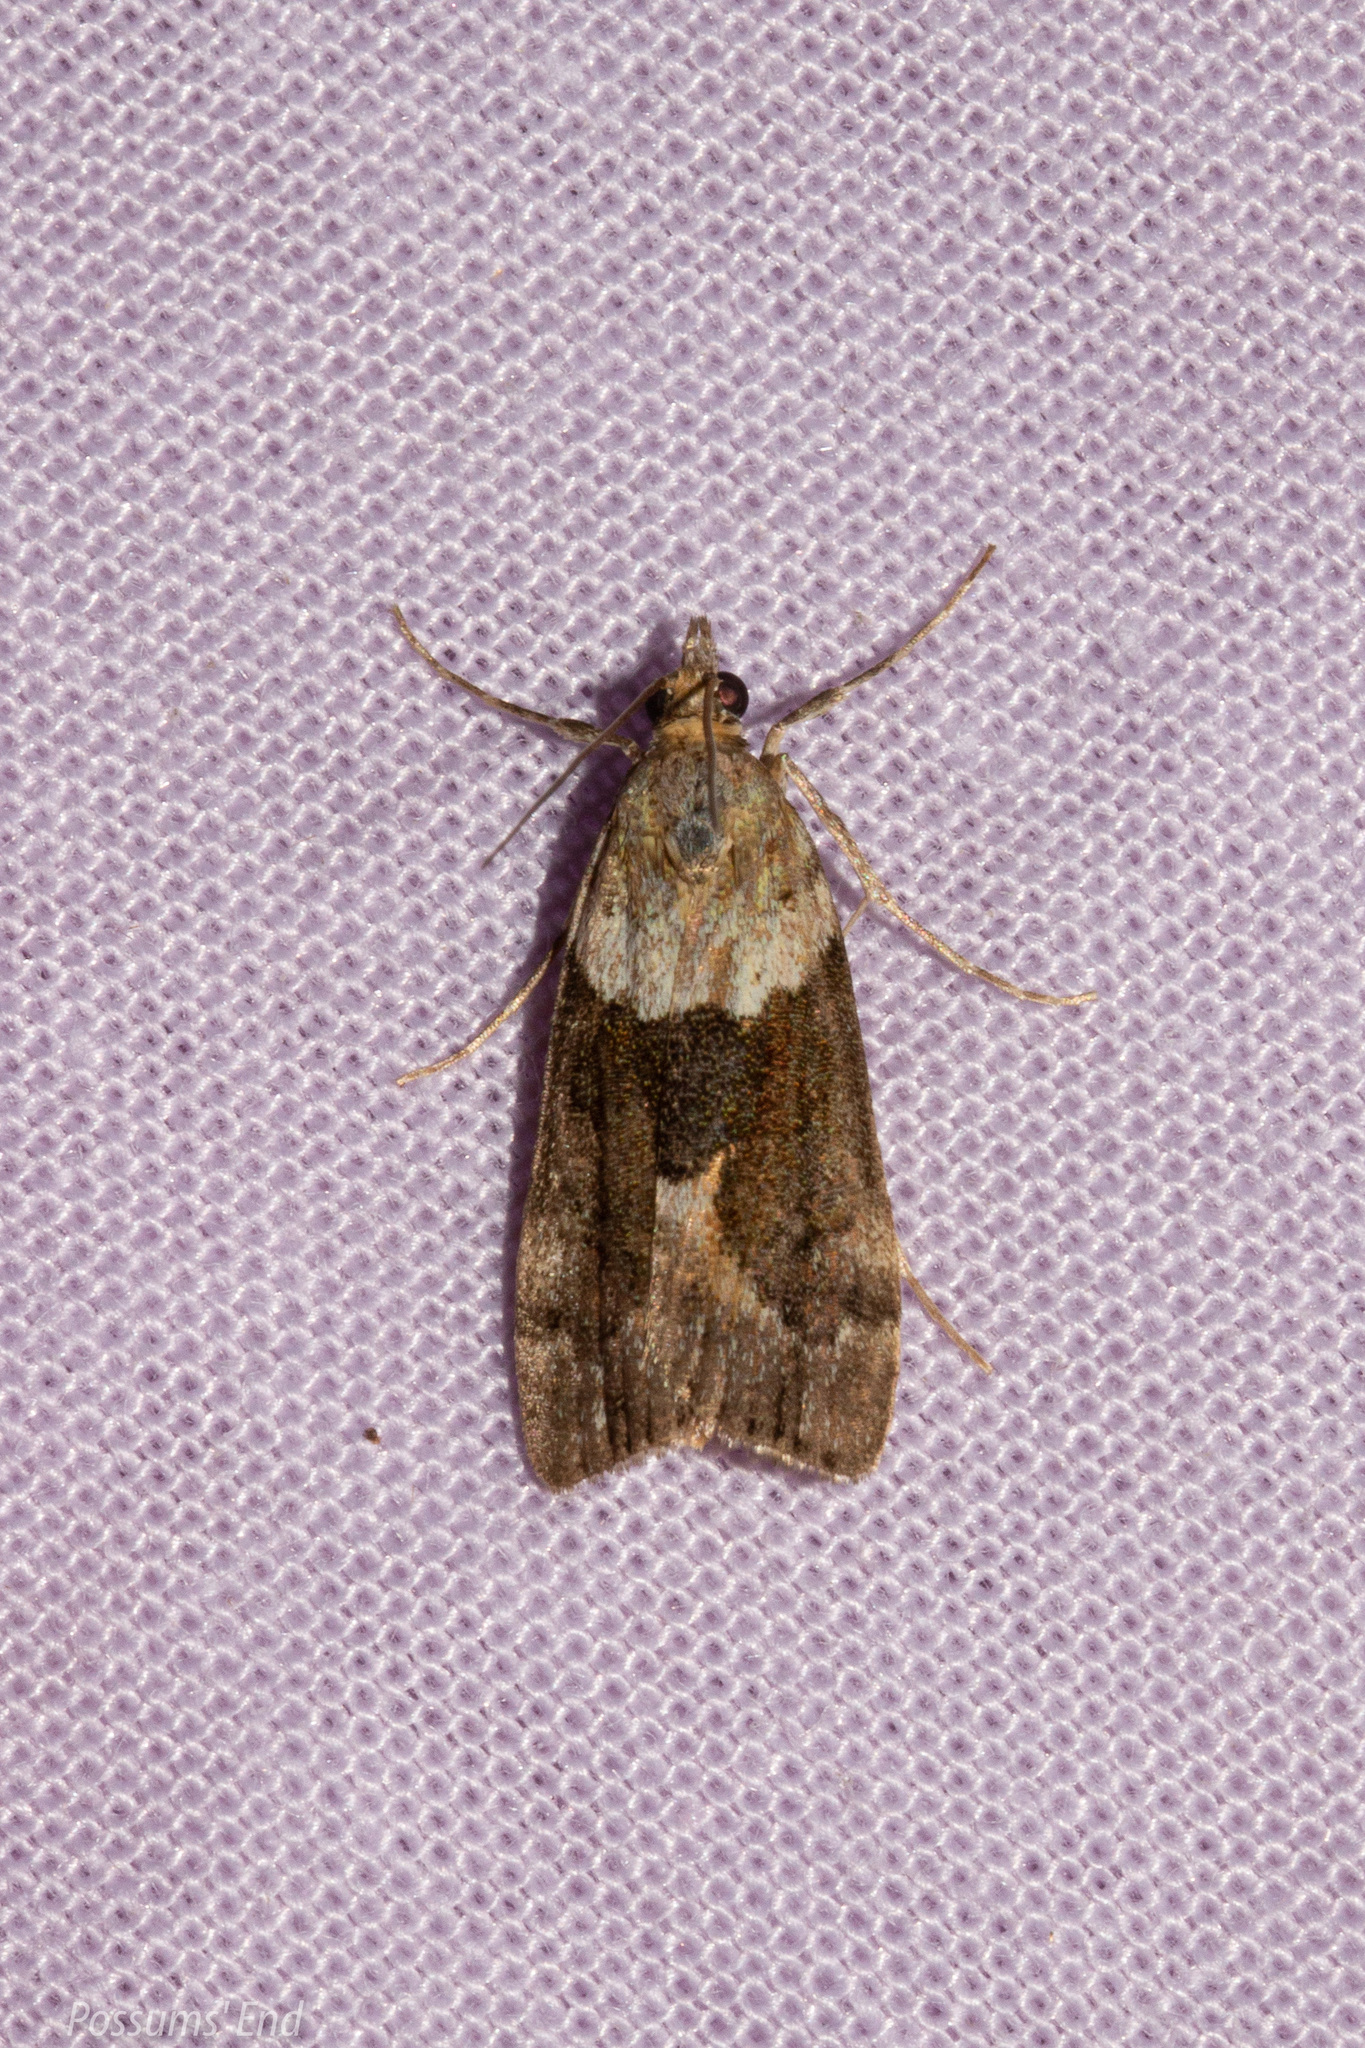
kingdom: Animalia
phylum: Arthropoda
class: Insecta
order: Lepidoptera
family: Crambidae
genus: Eudonia
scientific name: Eudonia submarginalis
